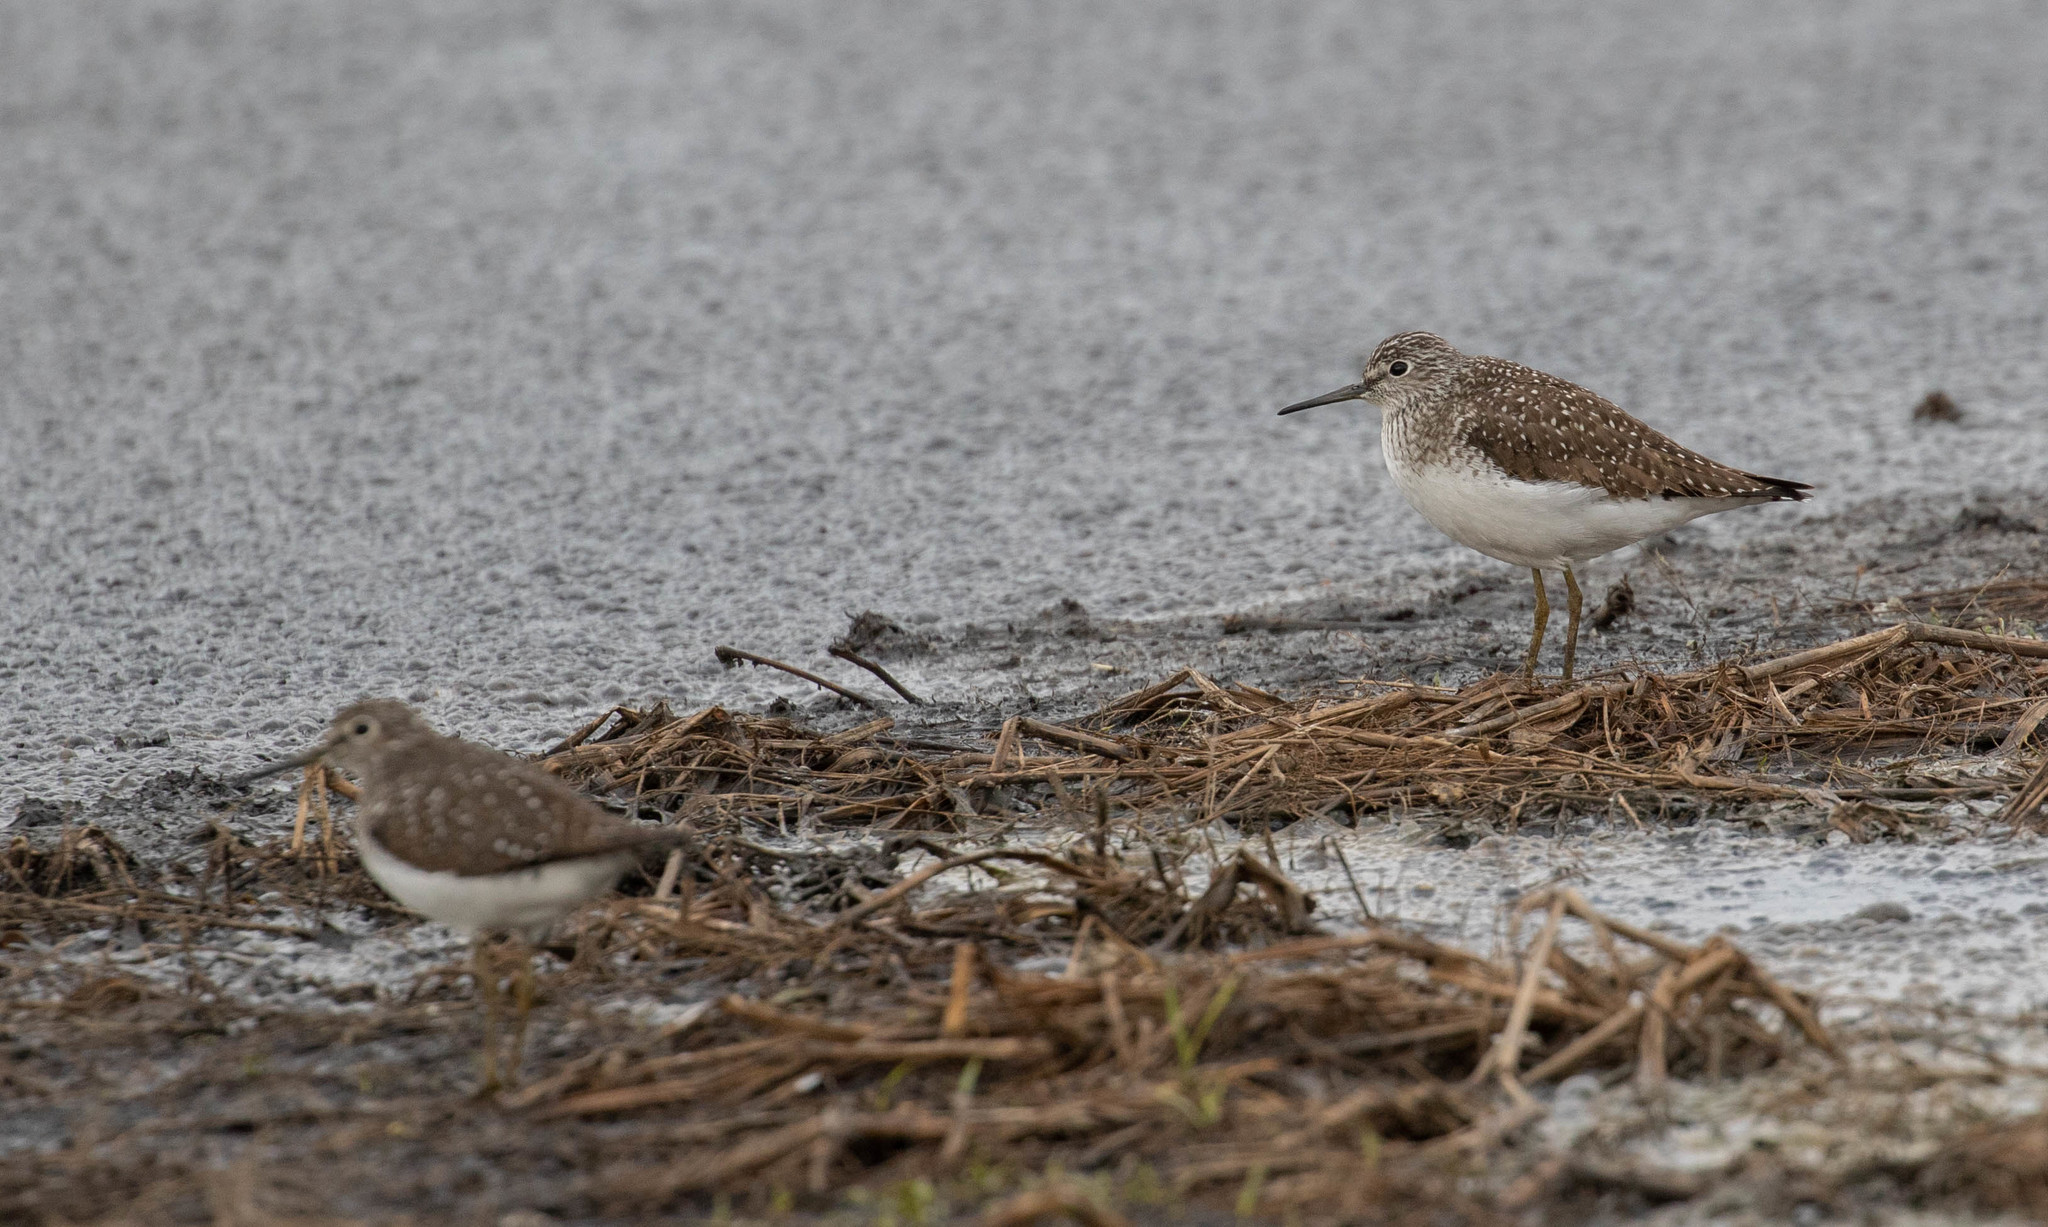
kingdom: Animalia
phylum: Chordata
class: Aves
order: Charadriiformes
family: Scolopacidae
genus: Tringa
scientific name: Tringa solitaria
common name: Solitary sandpiper
